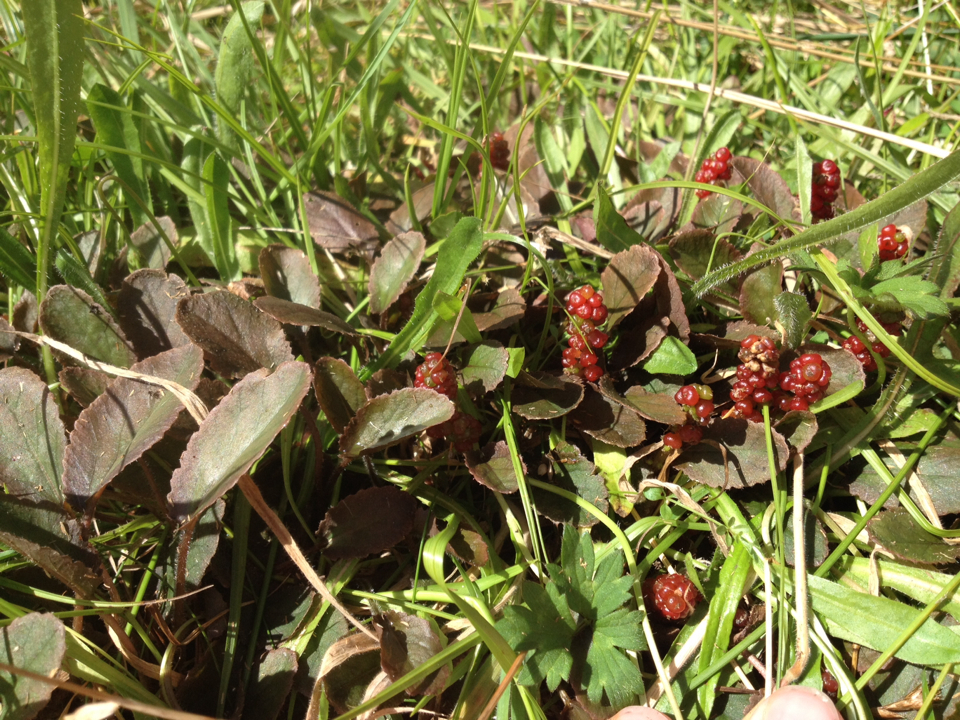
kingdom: Plantae
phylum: Tracheophyta
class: Magnoliopsida
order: Gunnerales
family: Gunneraceae
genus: Gunnera
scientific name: Gunnera prorepens
